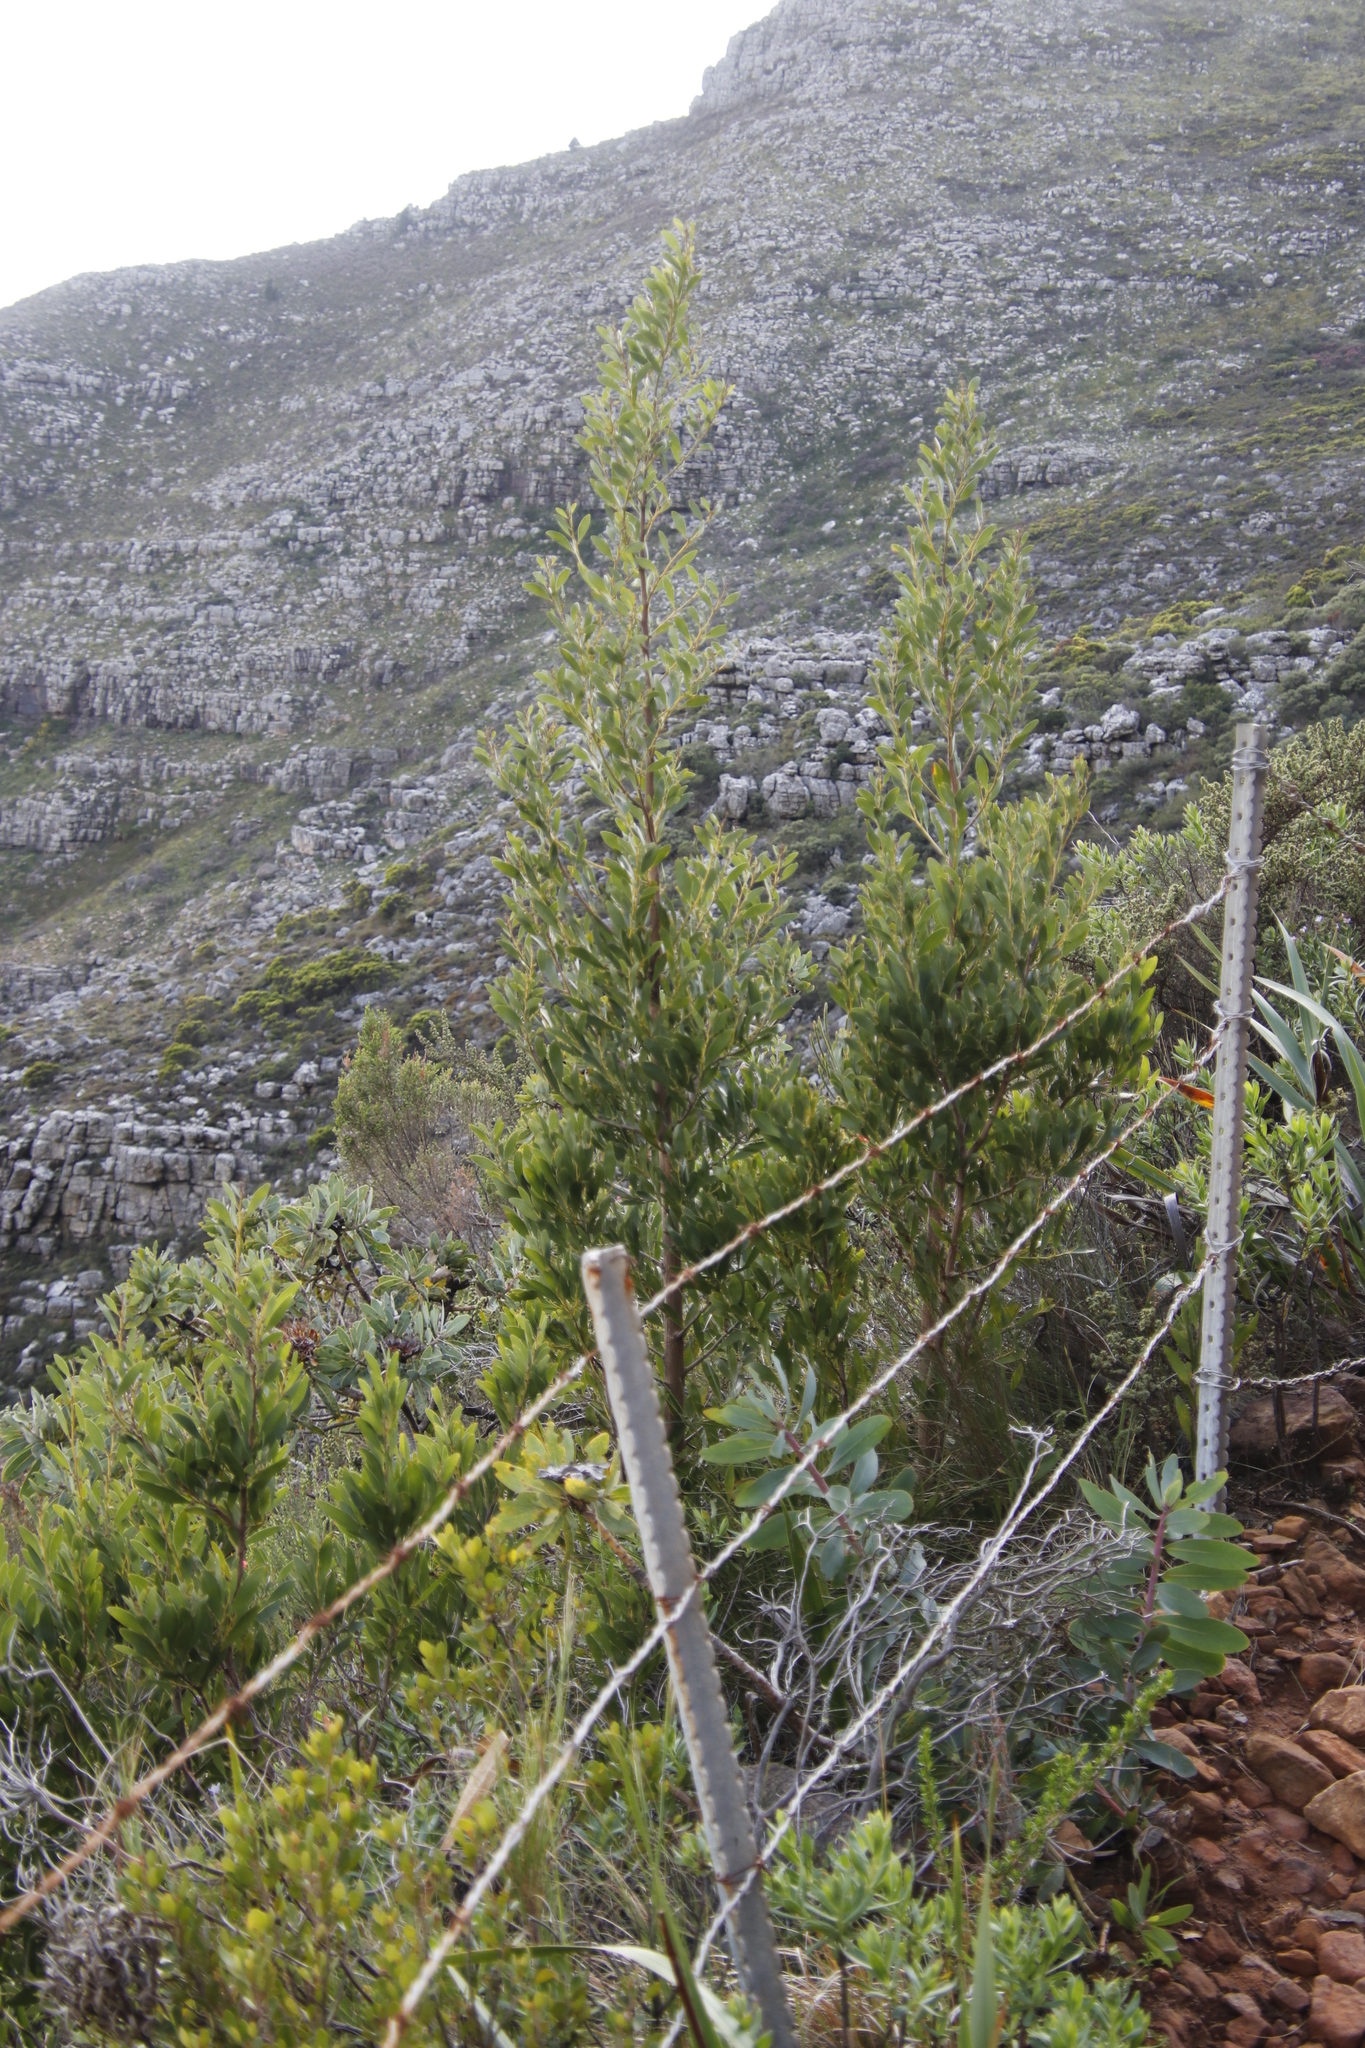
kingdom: Plantae
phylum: Tracheophyta
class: Magnoliopsida
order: Fabales
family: Fabaceae
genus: Acacia
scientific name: Acacia melanoxylon
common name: Blackwood
